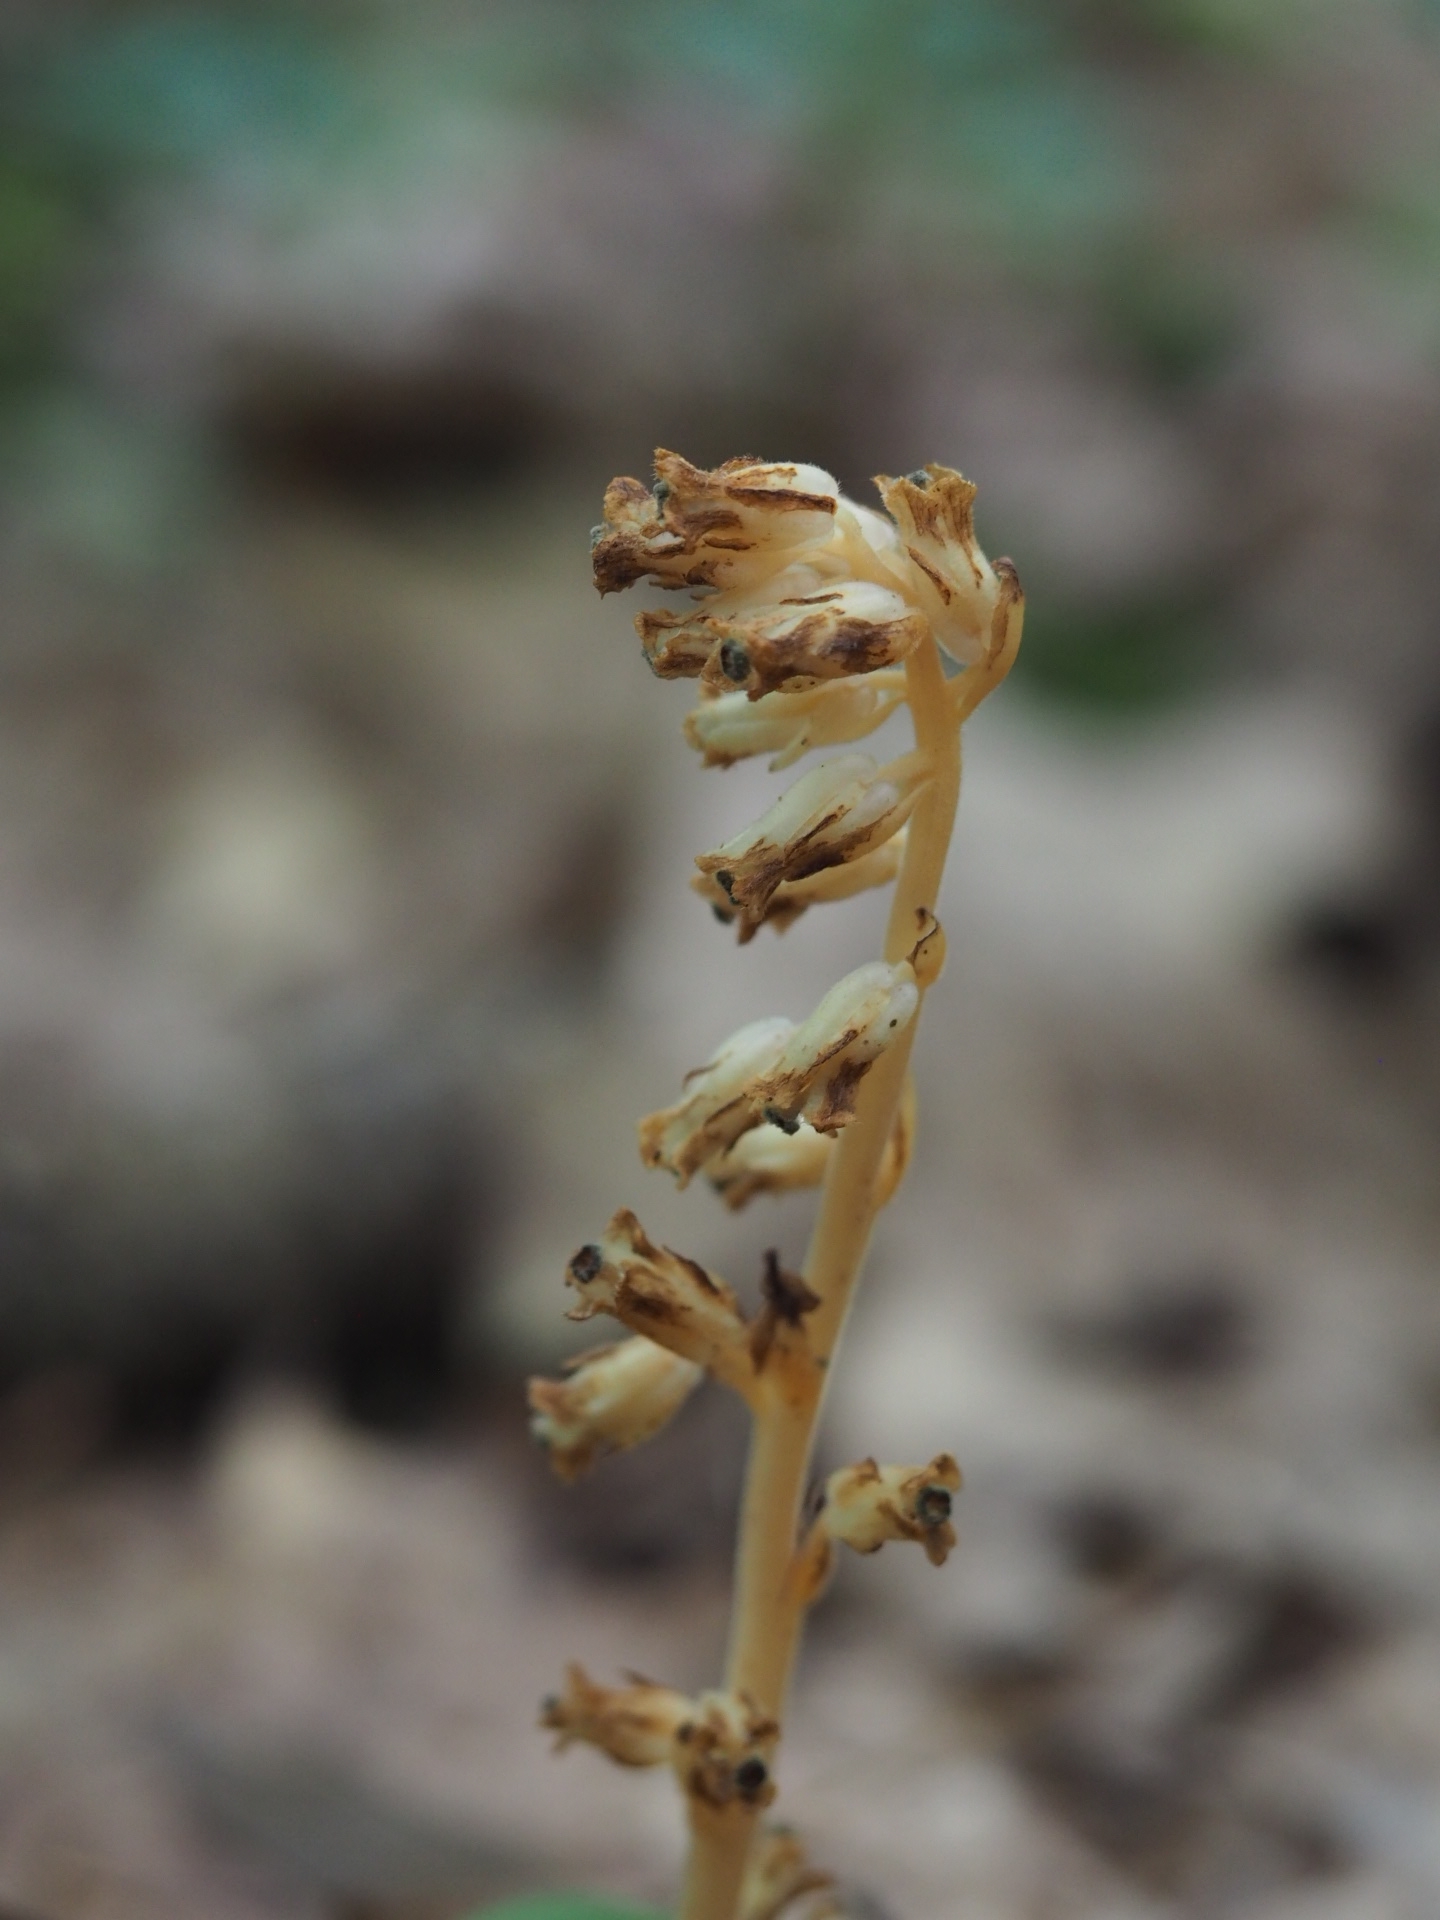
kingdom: Plantae
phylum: Tracheophyta
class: Magnoliopsida
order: Ericales
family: Ericaceae
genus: Hypopitys
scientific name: Hypopitys monotropa
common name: Yellow bird's-nest
